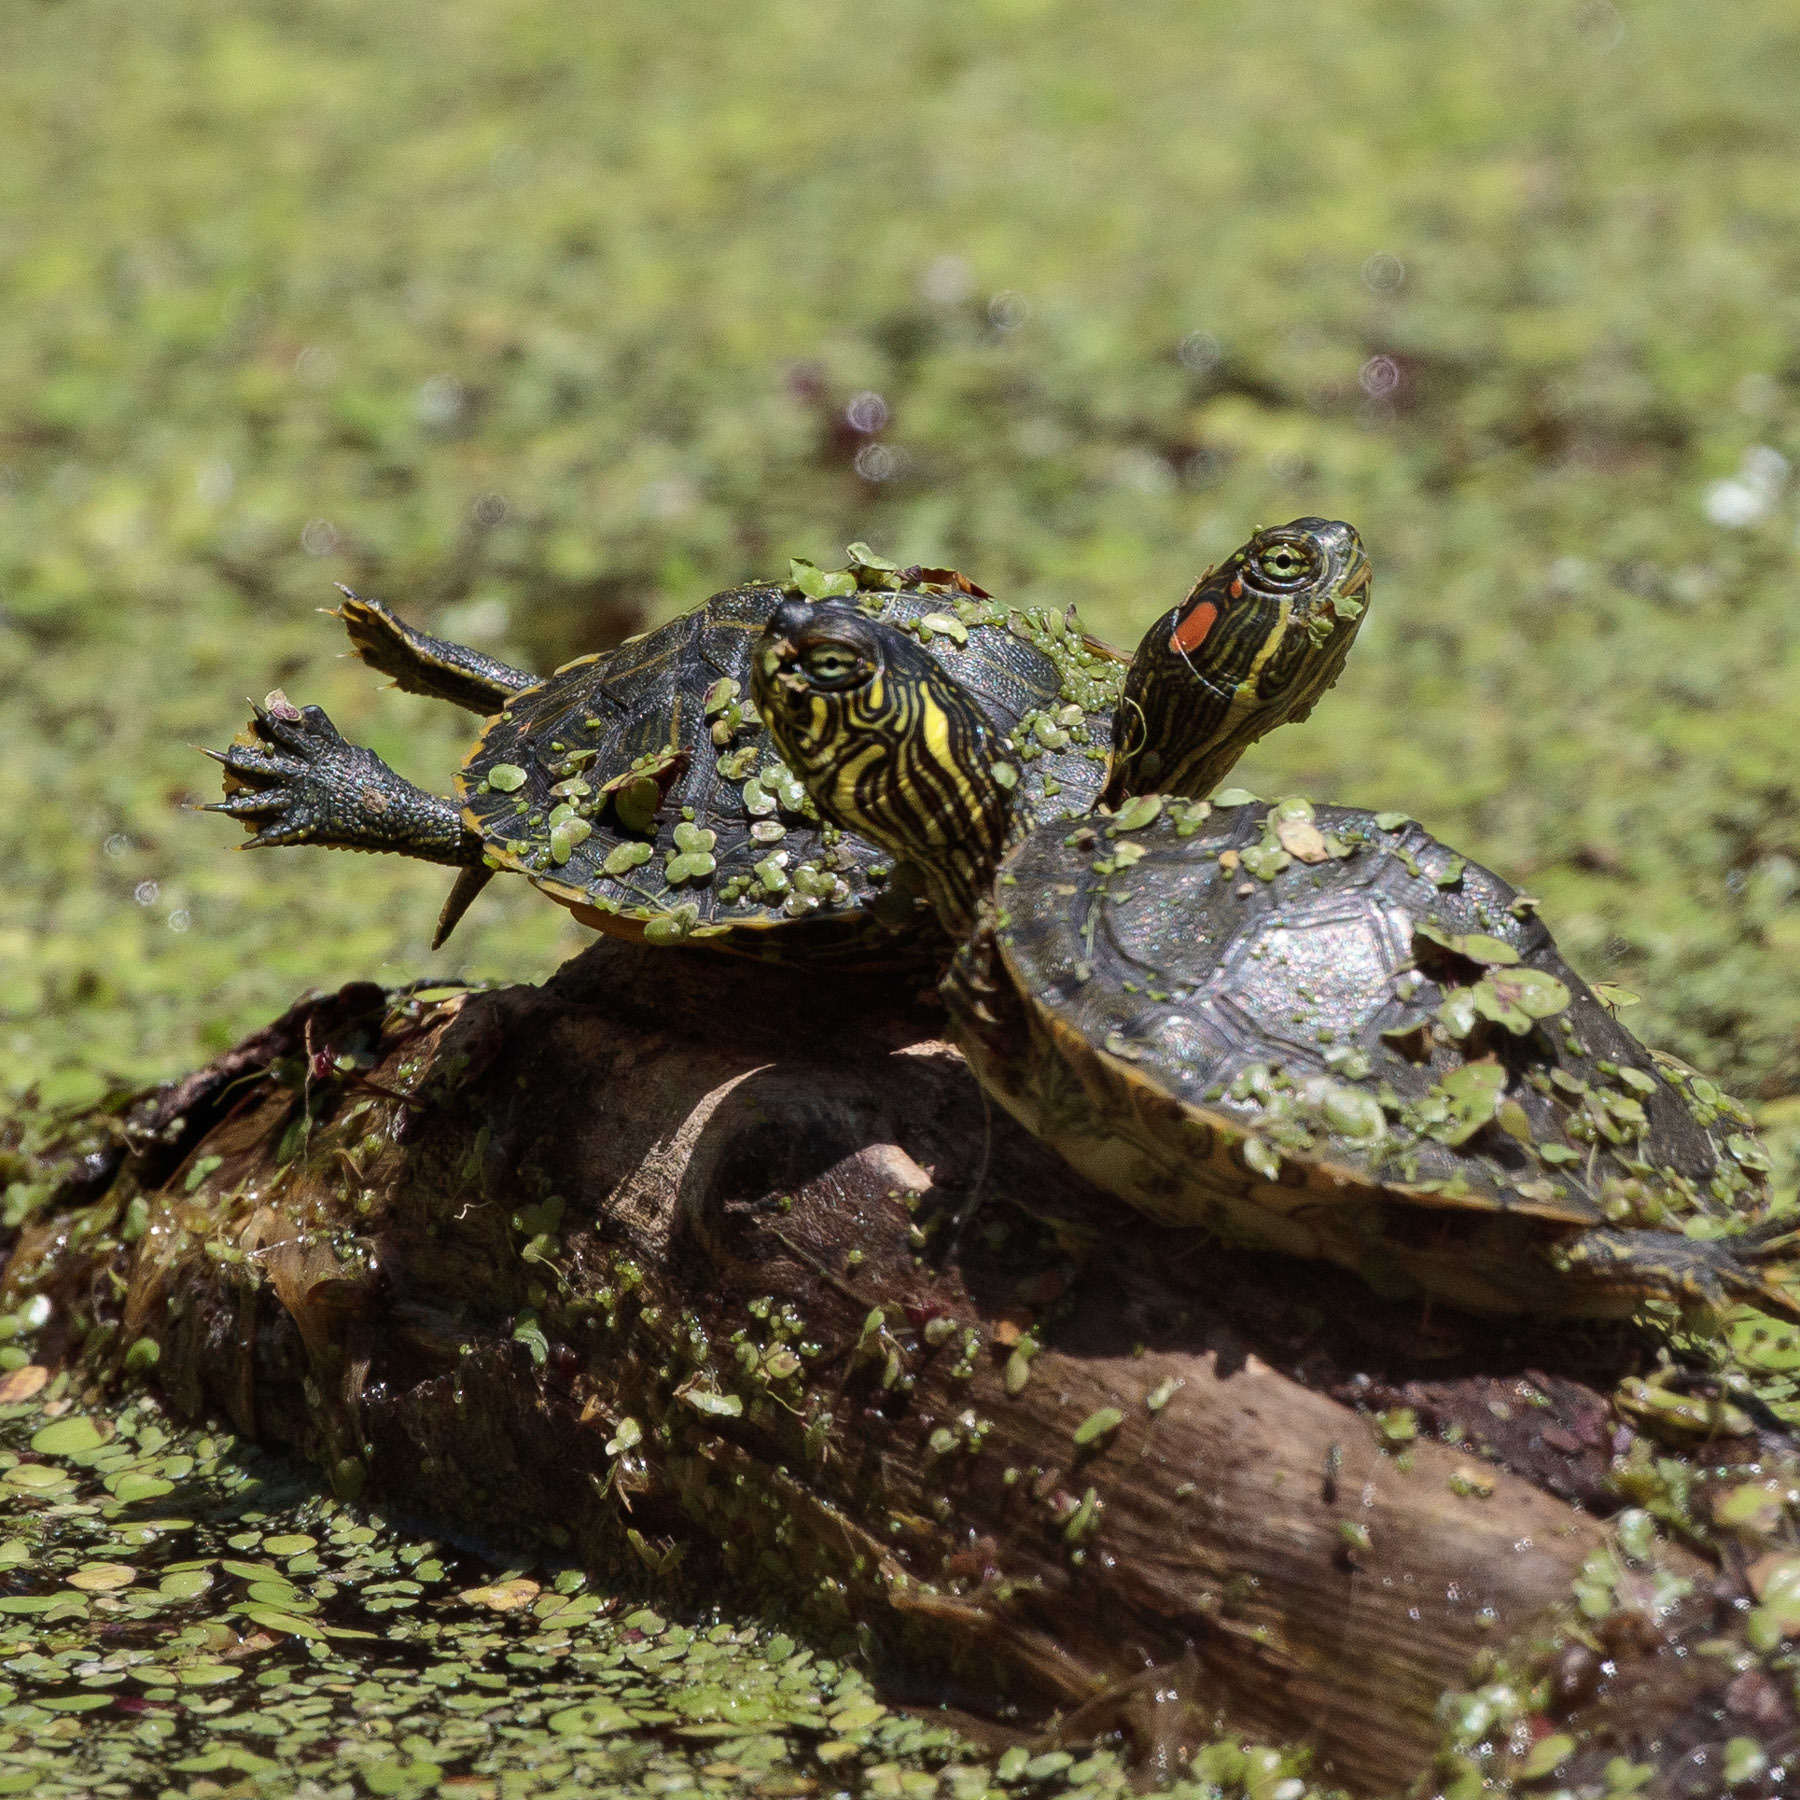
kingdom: Animalia
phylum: Chordata
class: Testudines
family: Emydidae
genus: Pseudemys
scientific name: Pseudemys texana
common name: Texas river cooter
